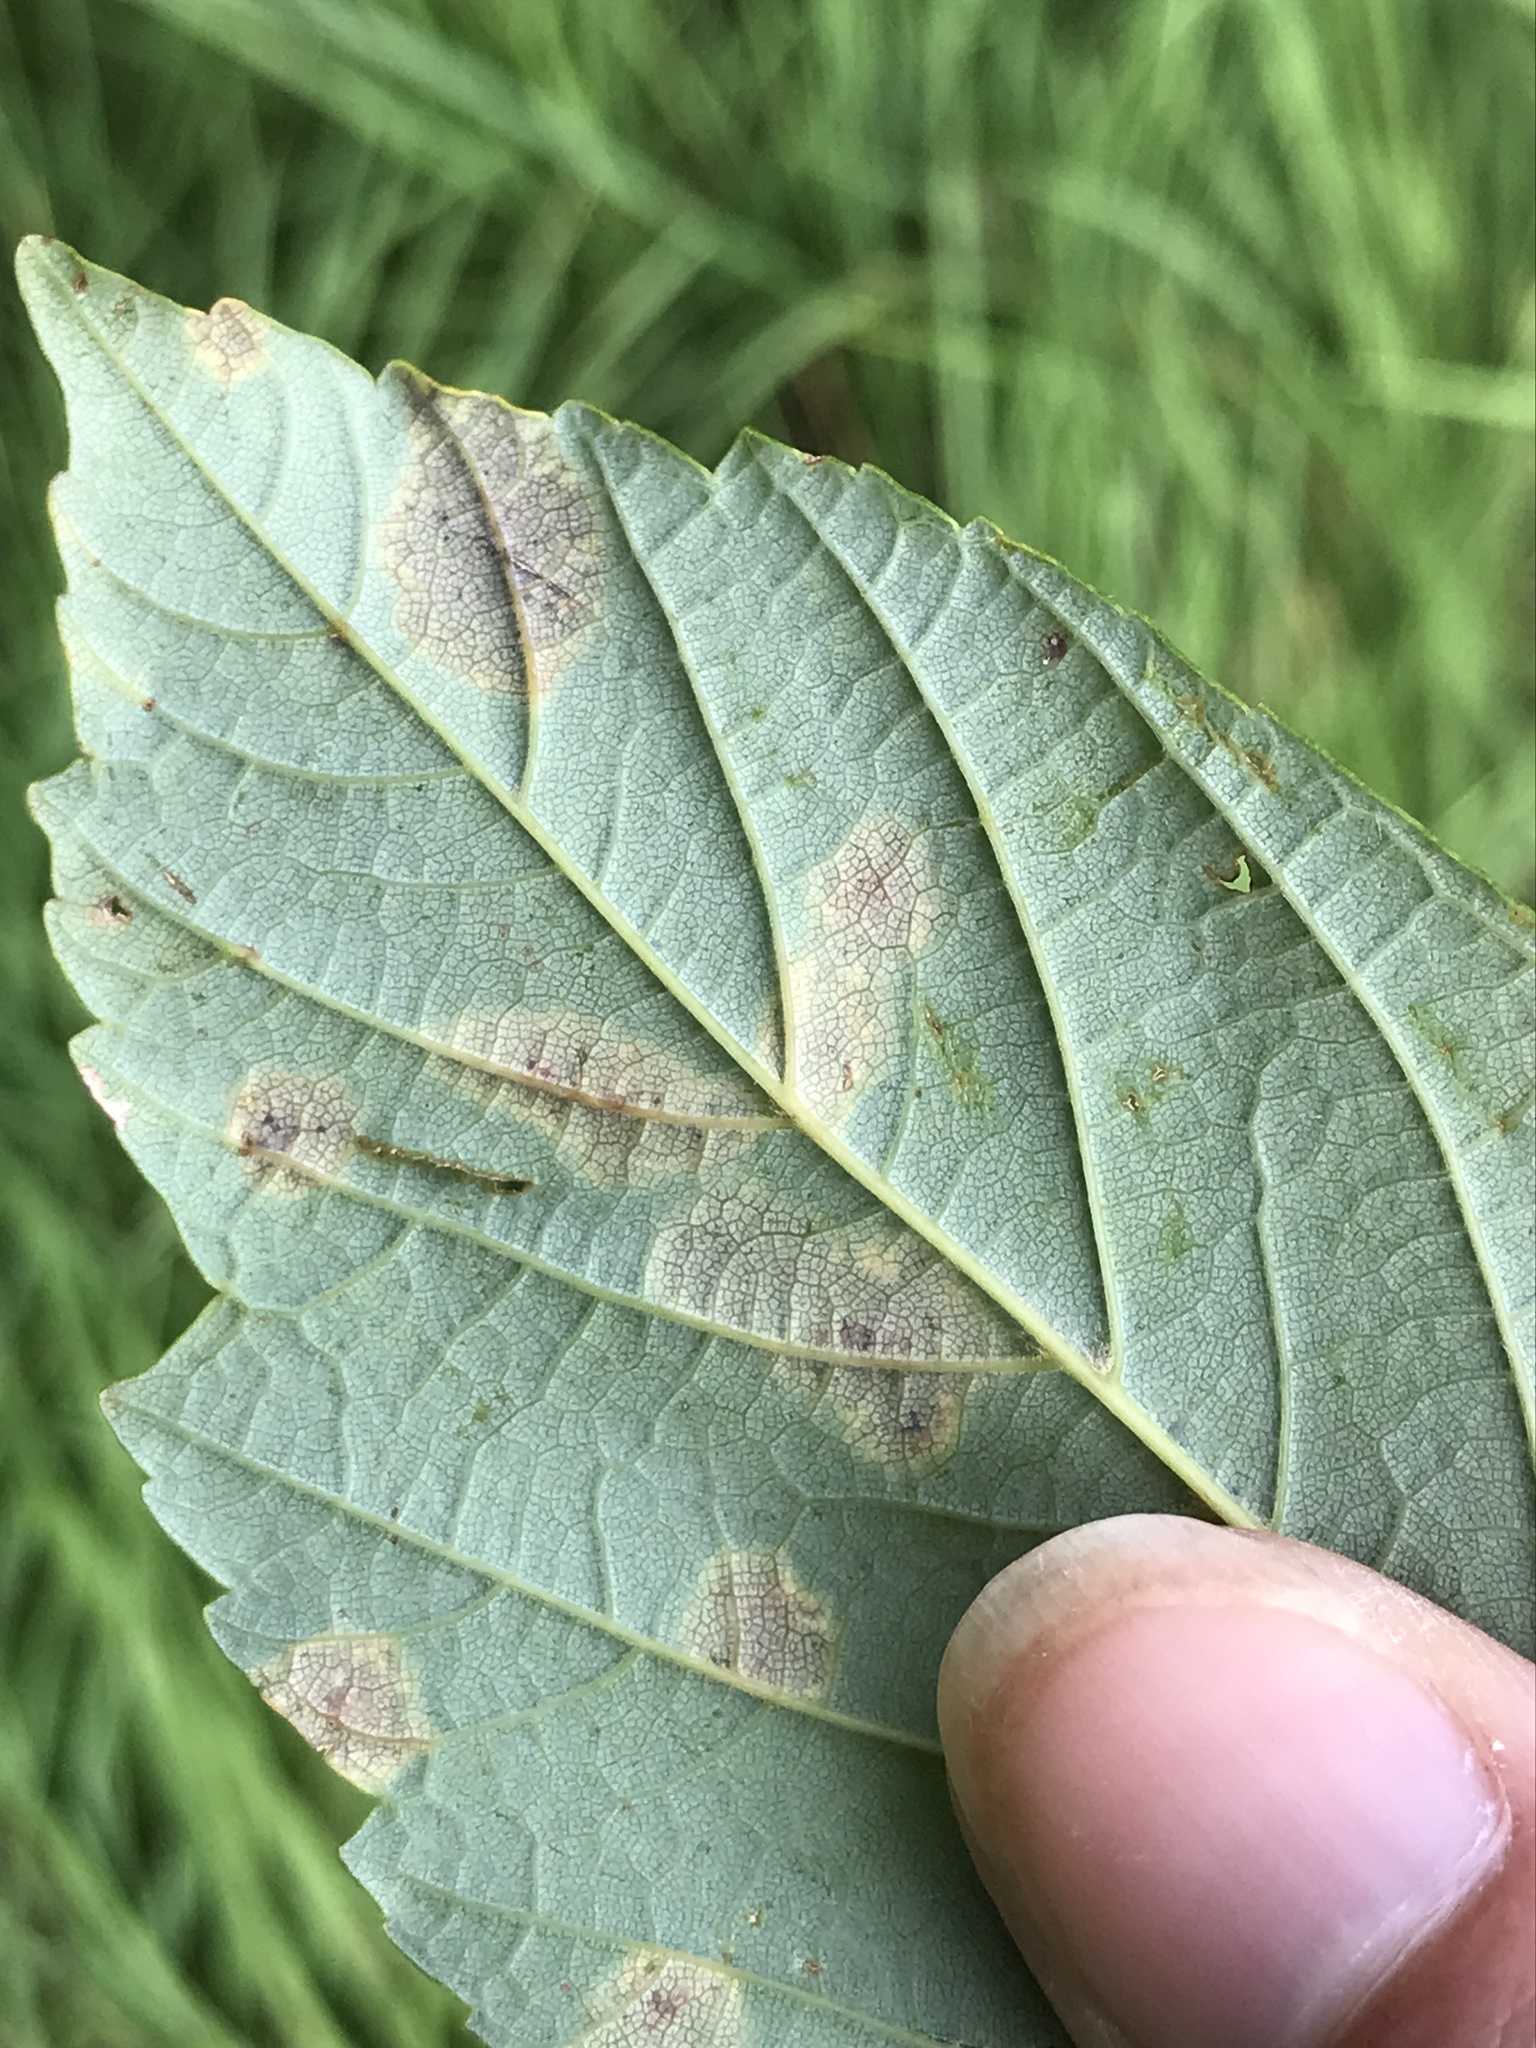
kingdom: Fungi
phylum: Ascomycota
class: Leotiomycetes
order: Rhytismatales
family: Rhytismataceae
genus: Rhytisma
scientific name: Rhytisma acerinum
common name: European tar spot
